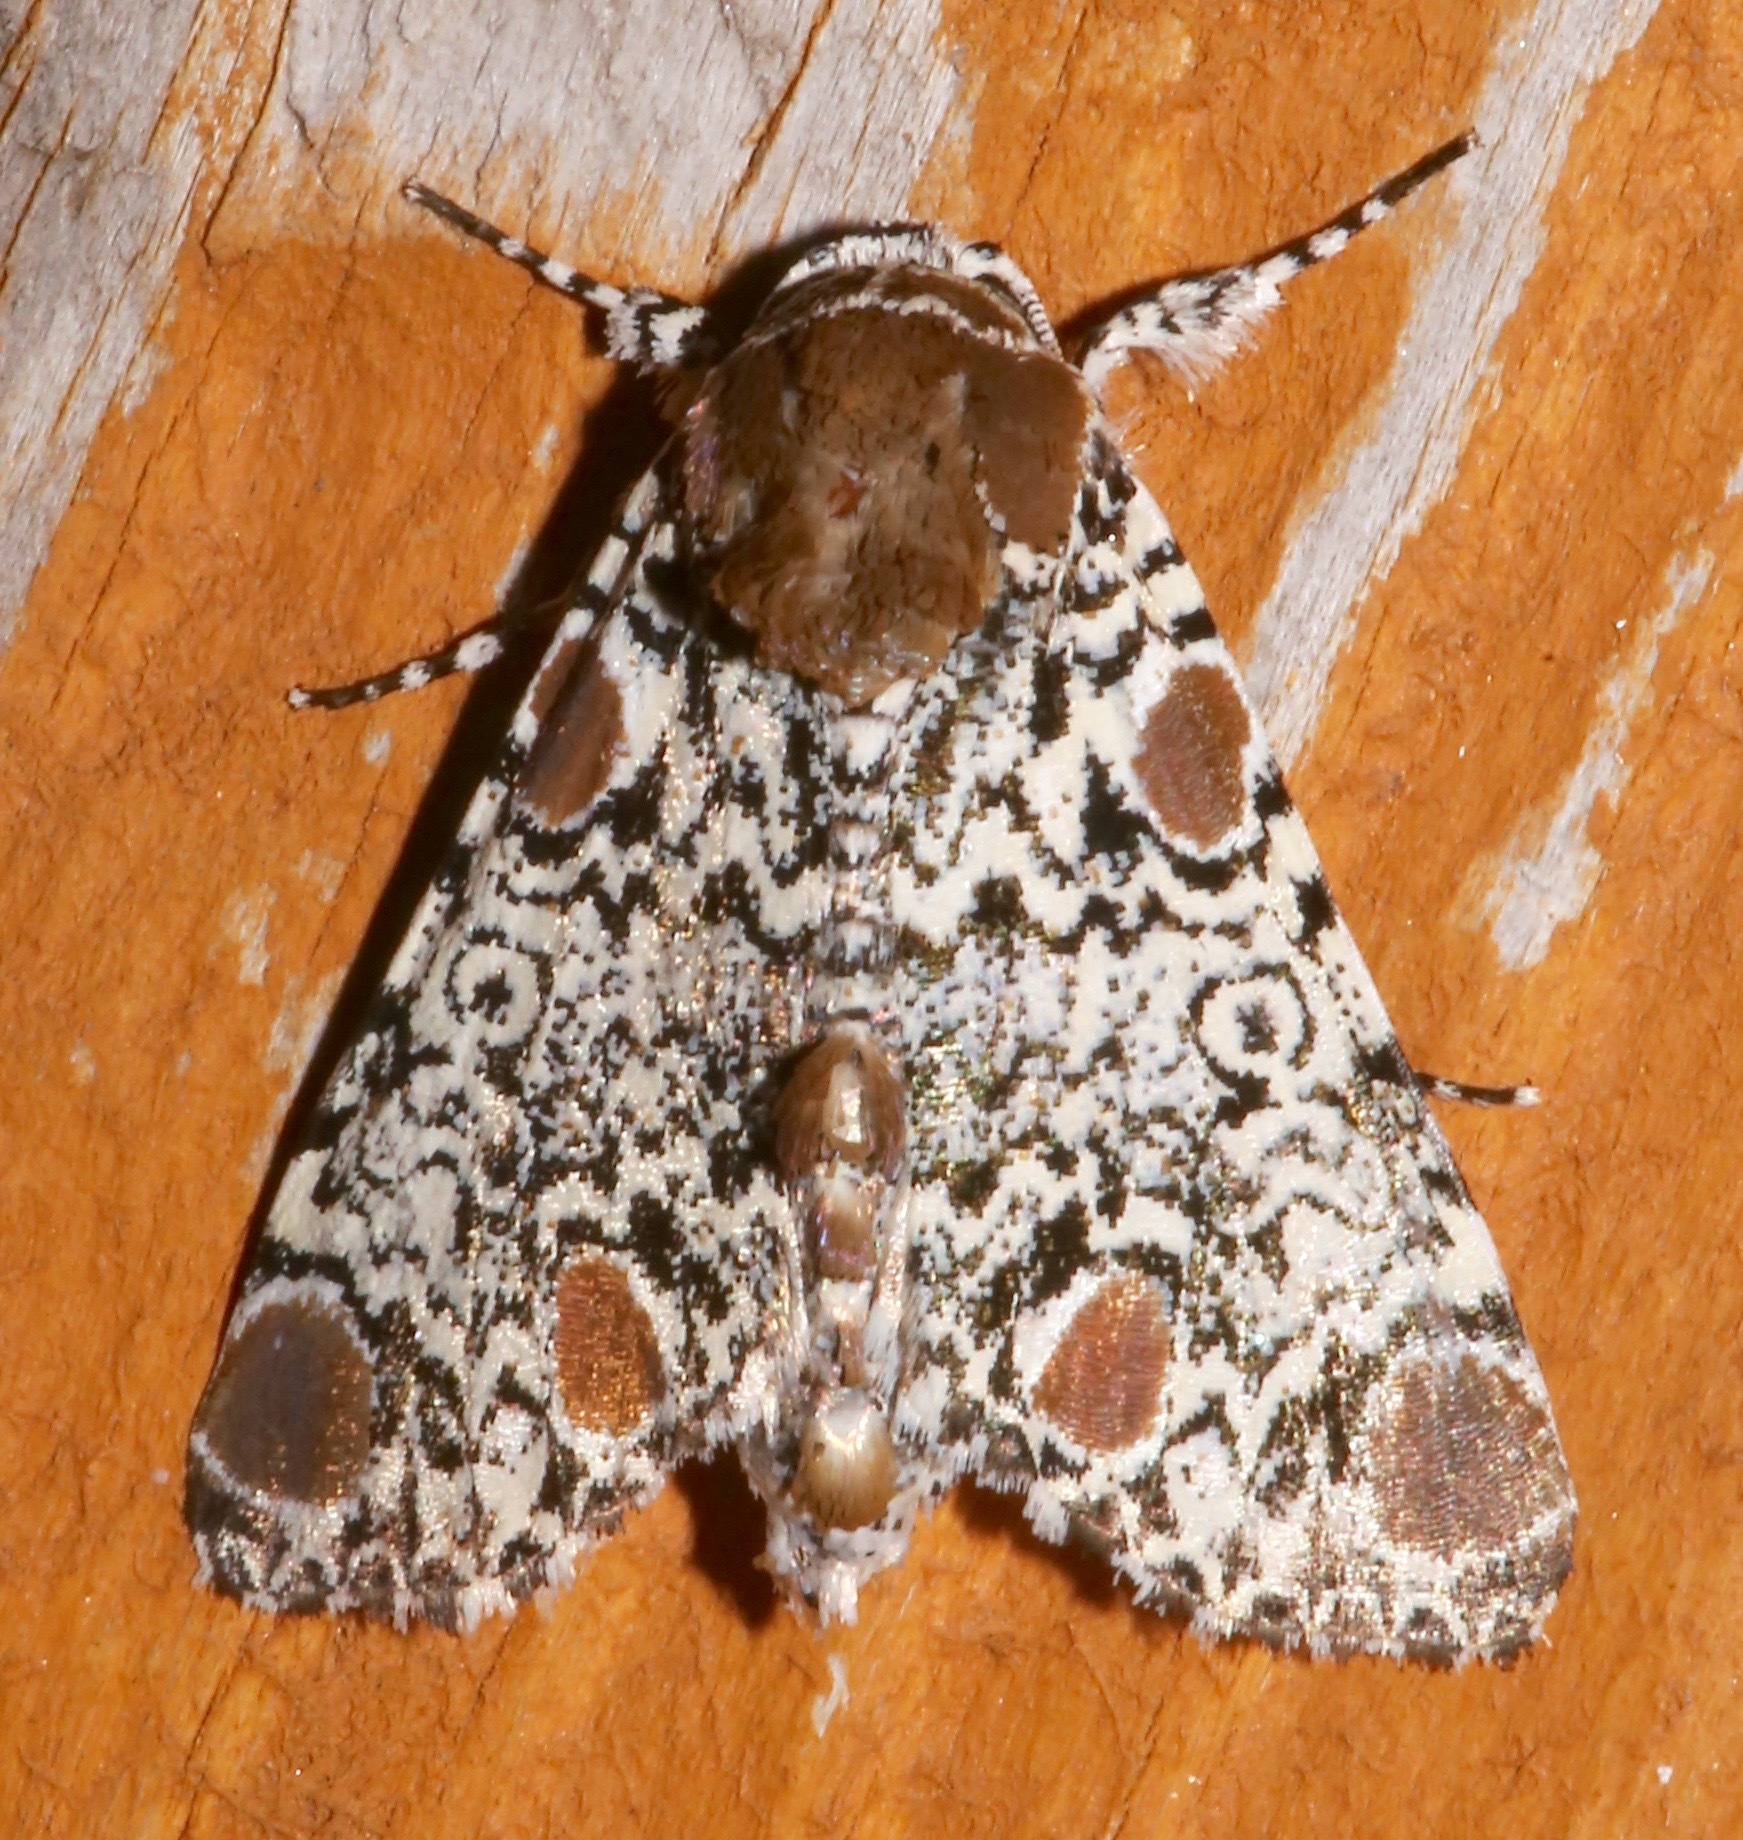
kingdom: Animalia
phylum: Arthropoda
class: Insecta
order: Lepidoptera
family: Noctuidae
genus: Harrisimemna
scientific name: Harrisimemna trisignata
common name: Harris threespot
